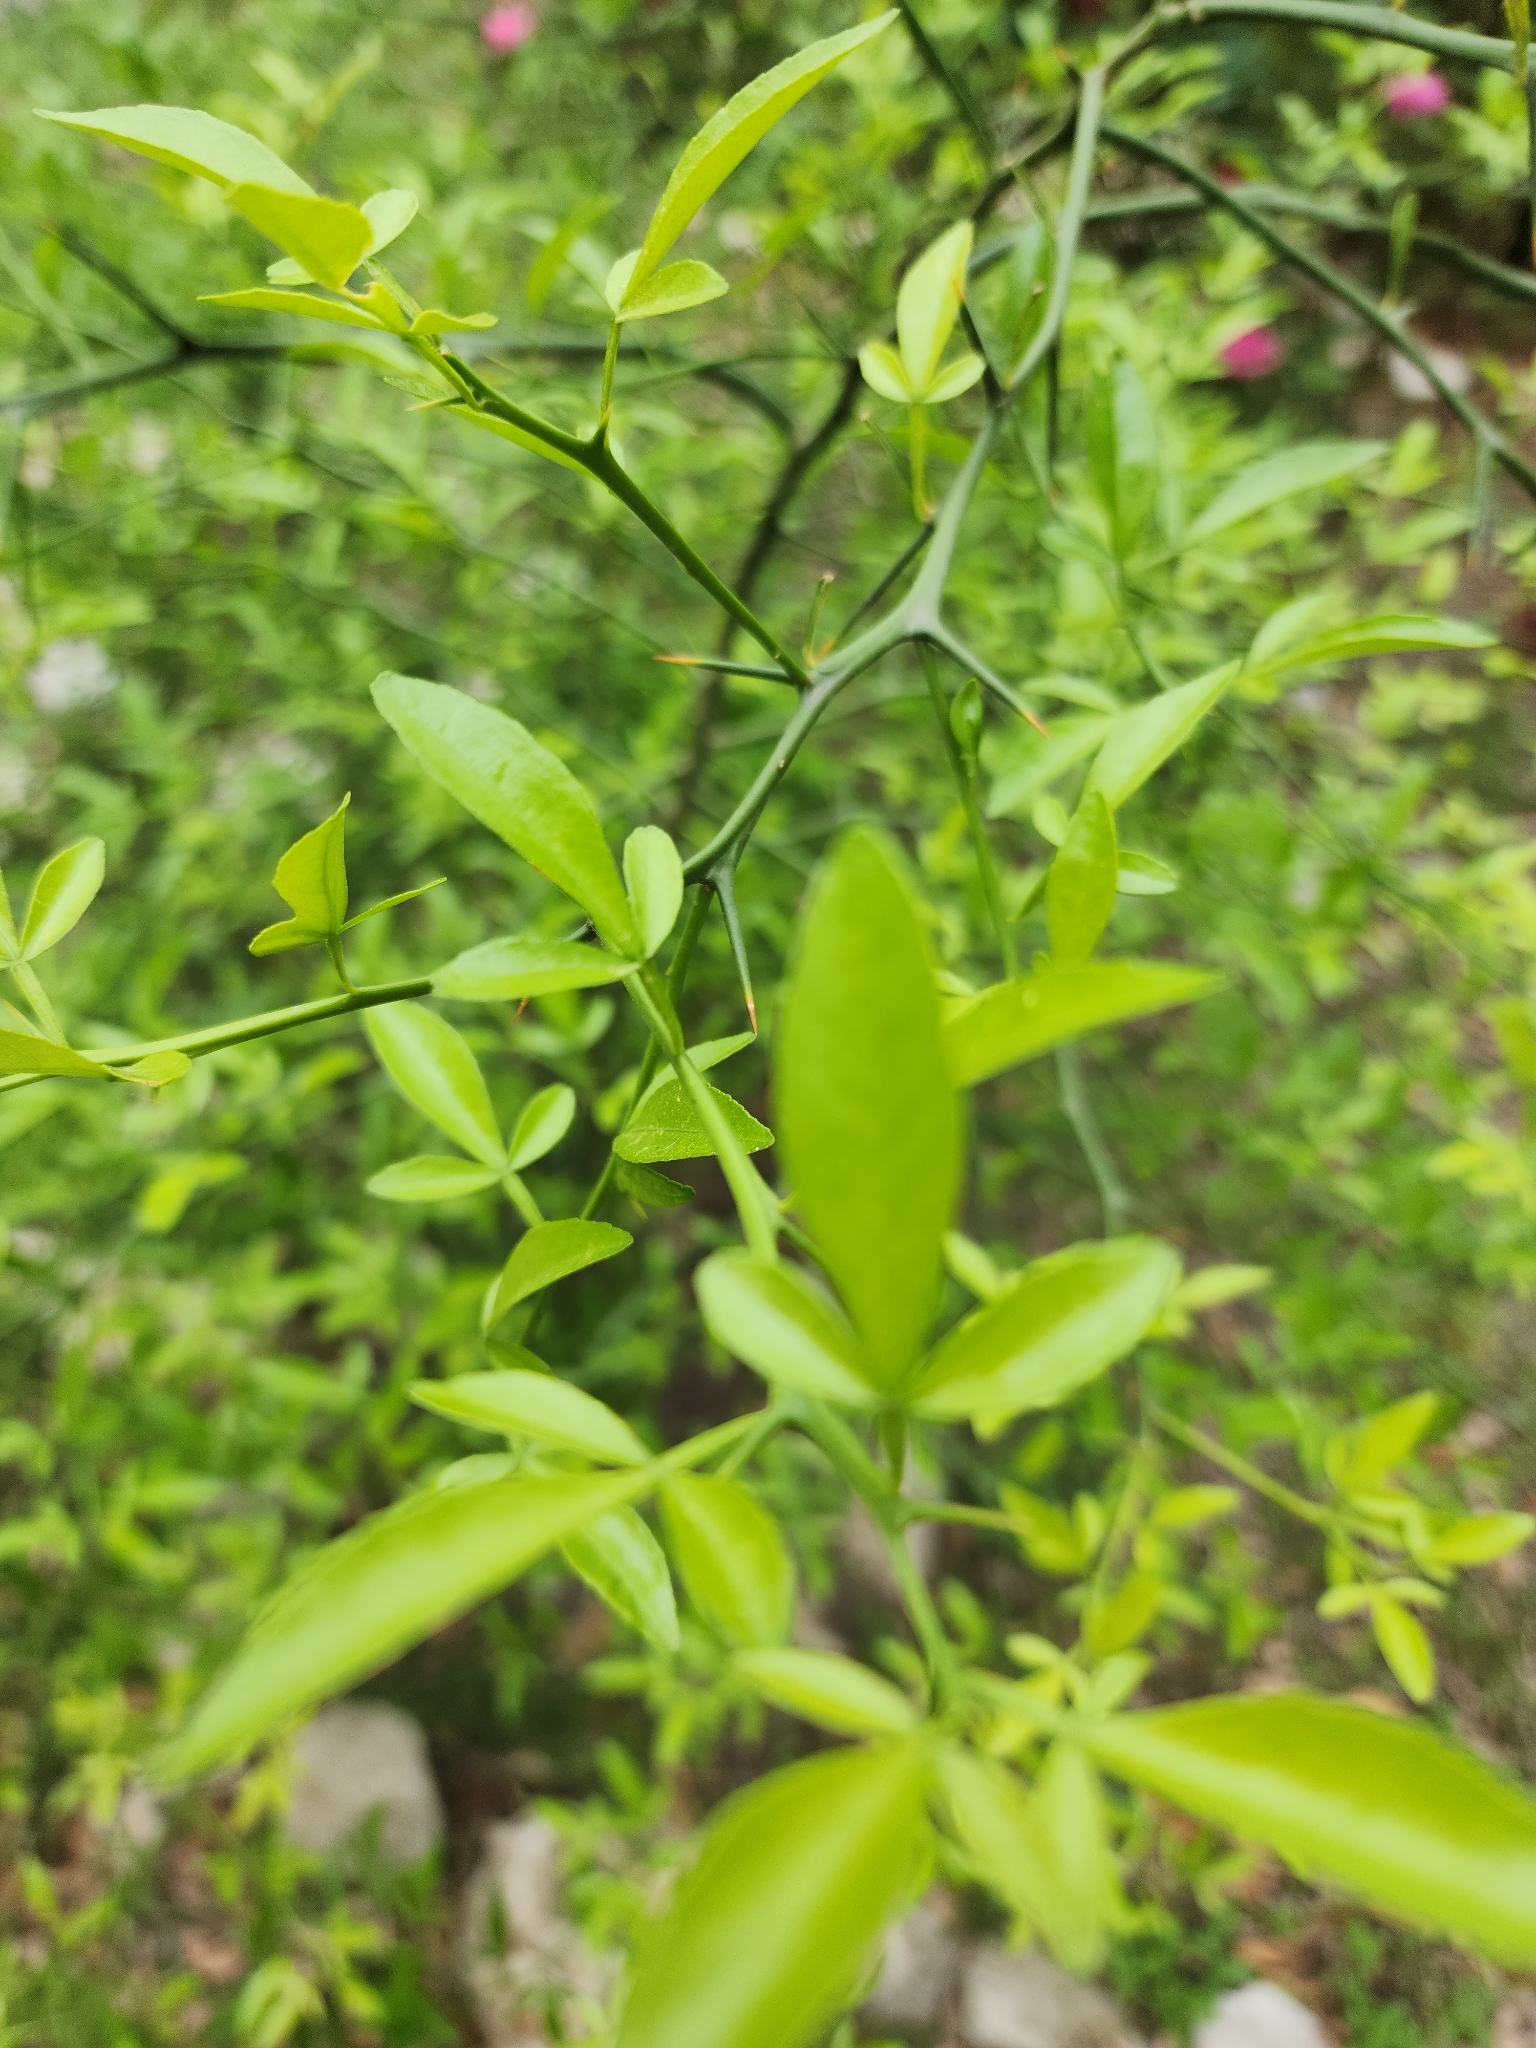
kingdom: Plantae
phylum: Tracheophyta
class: Magnoliopsida
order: Sapindales
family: Rutaceae
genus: Citrus
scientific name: Citrus trifoliata
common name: Japanese bitter-orange
